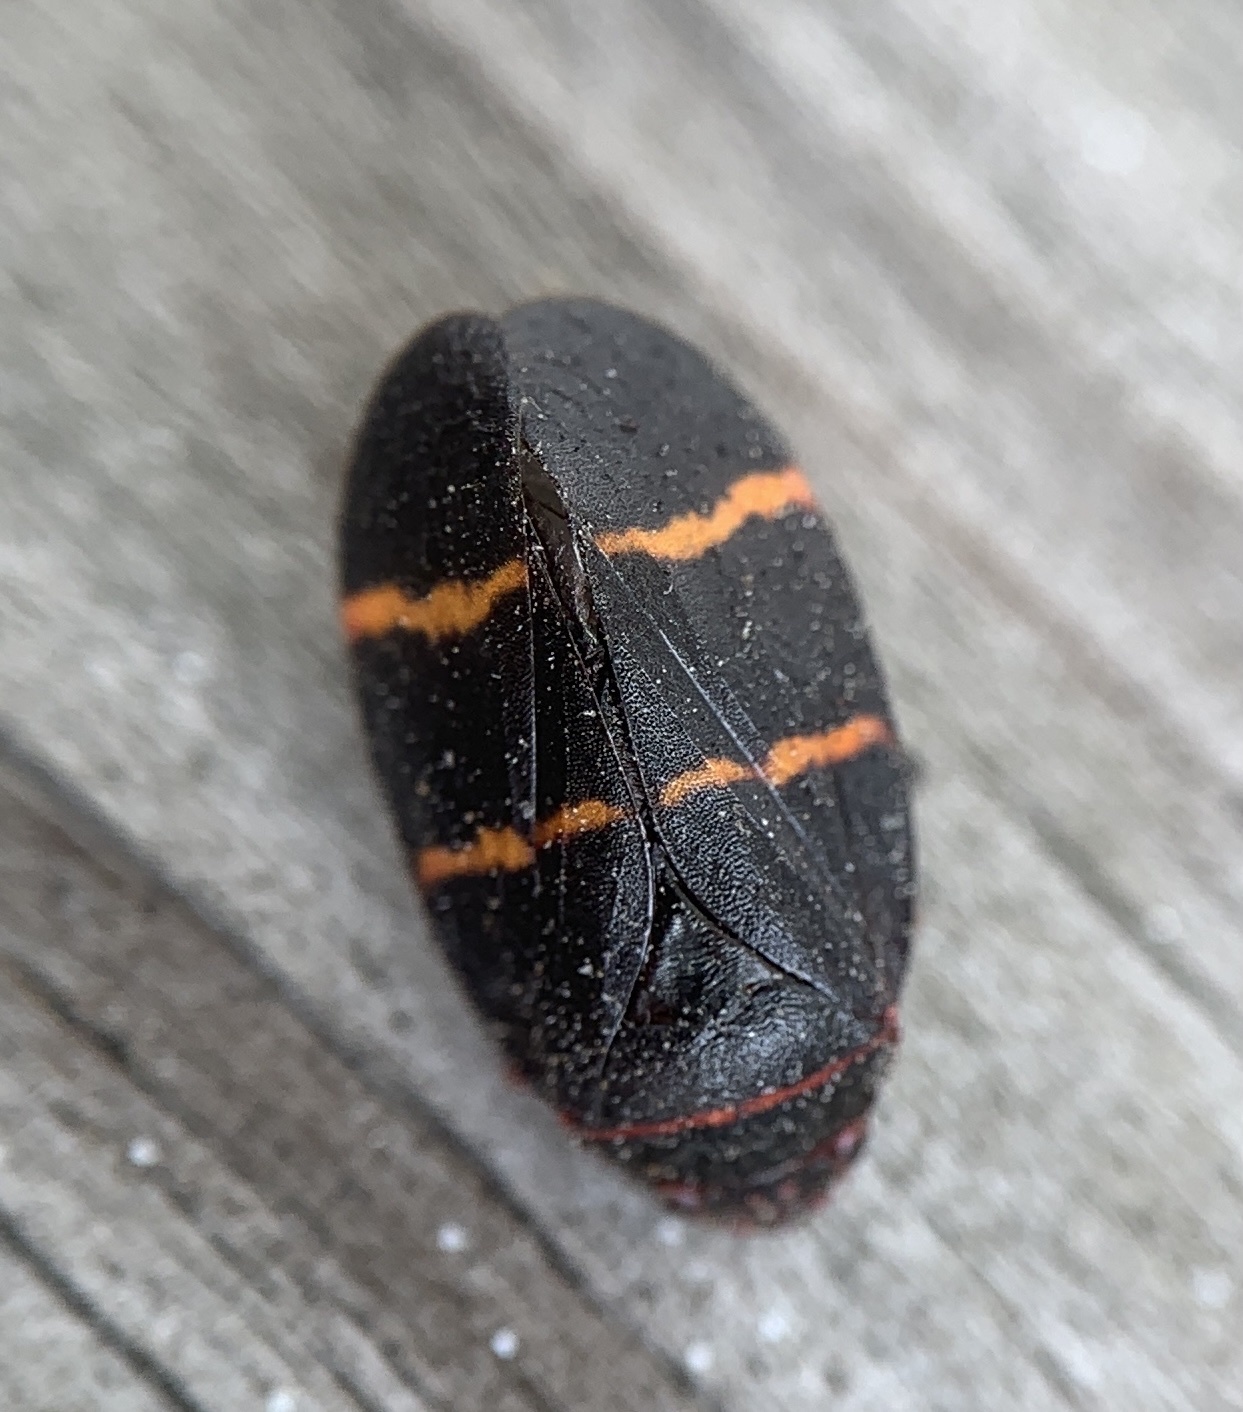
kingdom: Animalia
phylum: Arthropoda
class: Insecta
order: Hemiptera
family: Cercopidae
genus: Prosapia
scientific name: Prosapia bicincta
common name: Twolined spittlebug
